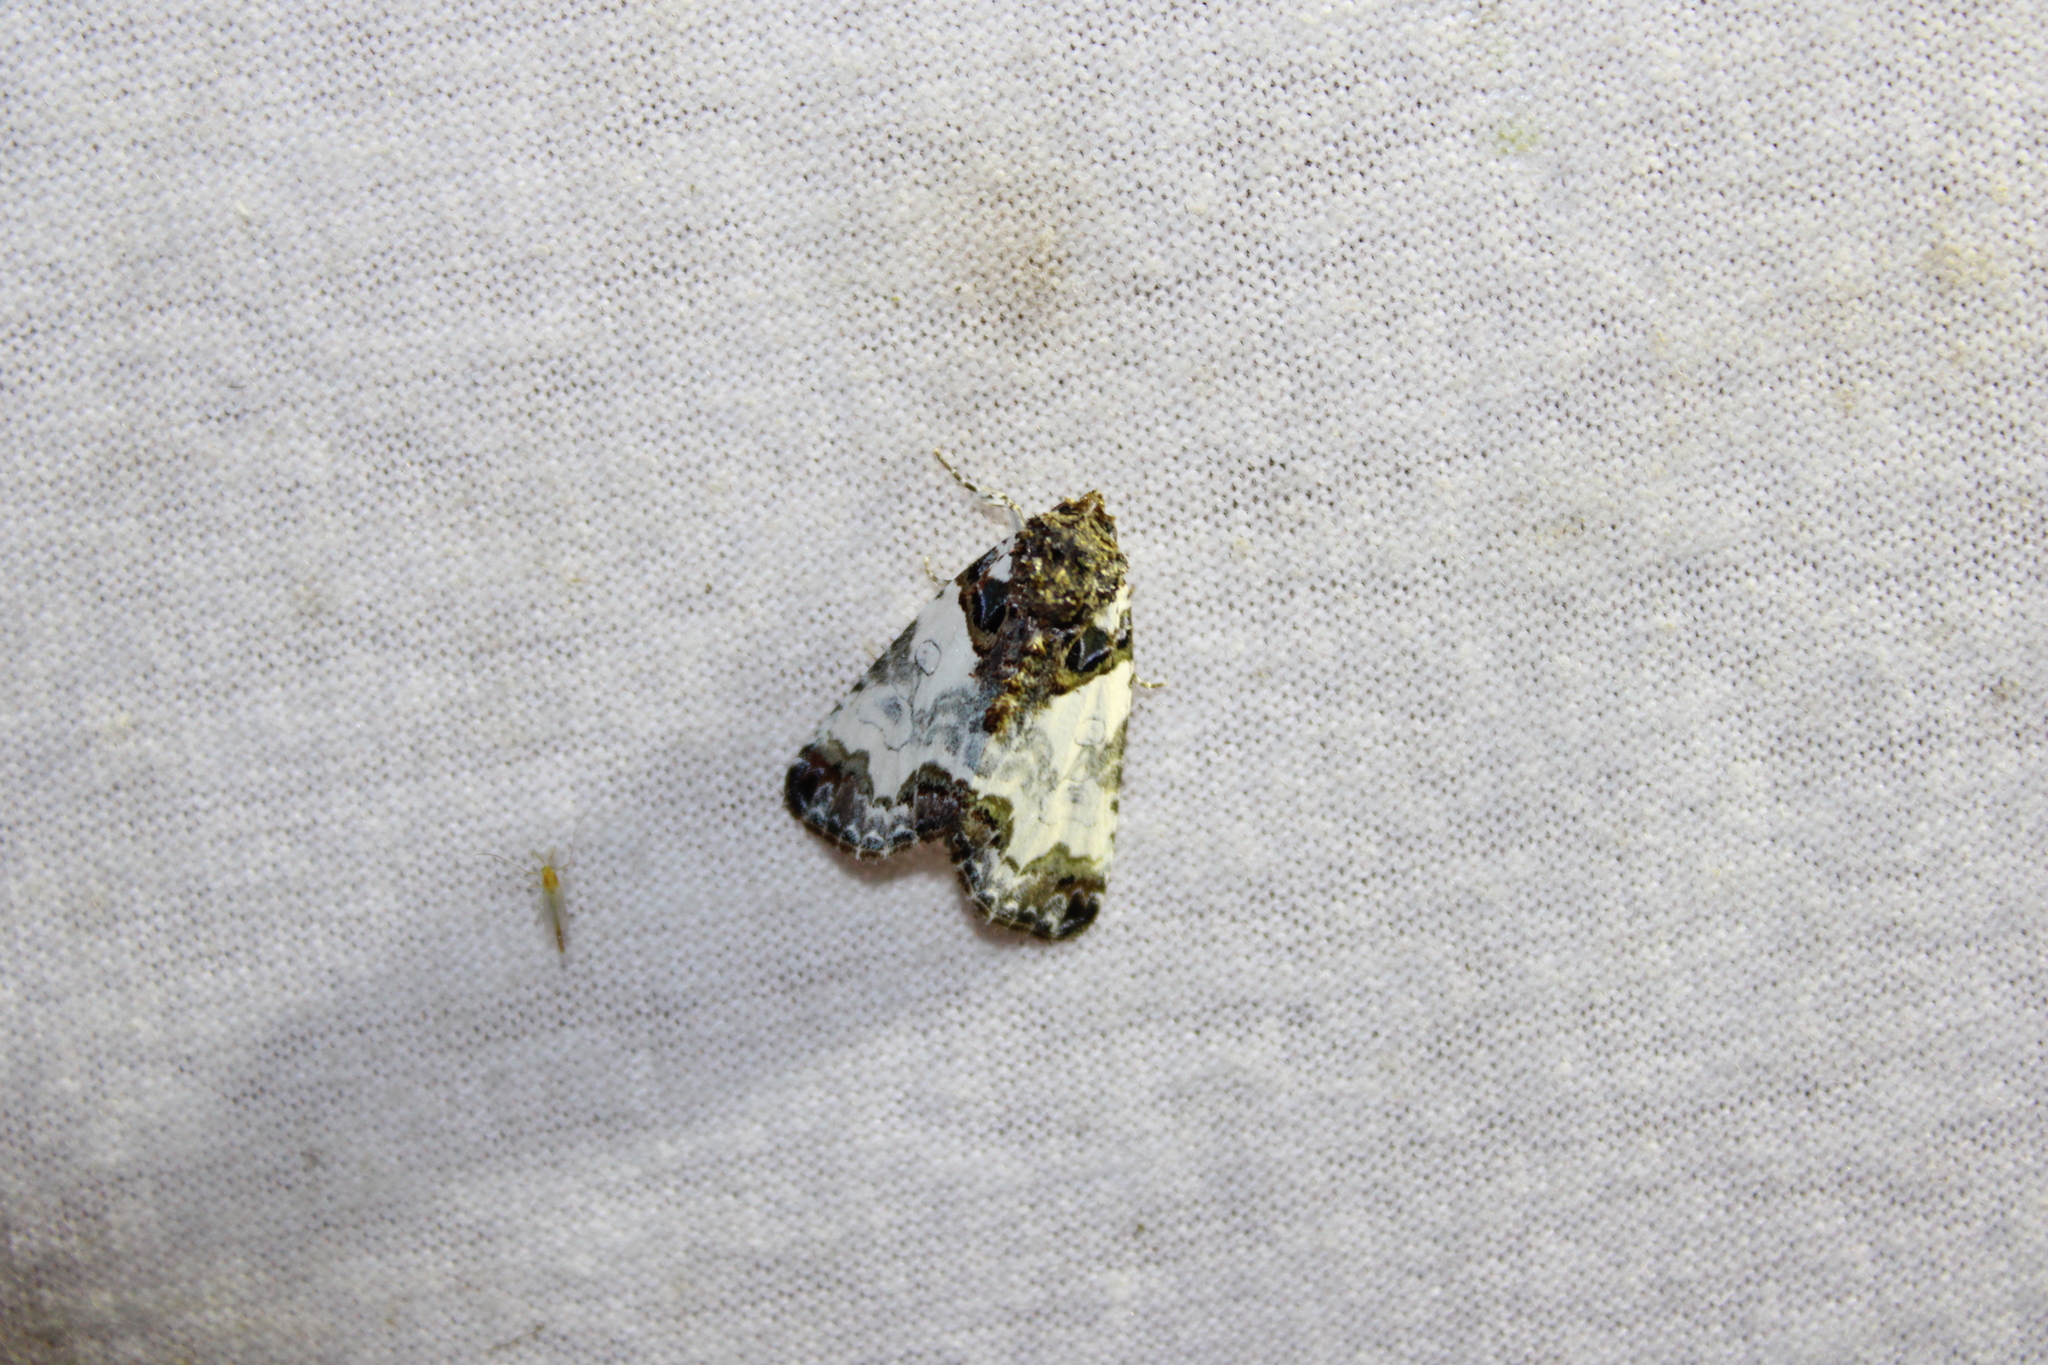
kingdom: Animalia
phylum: Arthropoda
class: Insecta
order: Lepidoptera
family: Noctuidae
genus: Cerma
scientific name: Cerma cerintha
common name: Tufted bird-dropping moth
